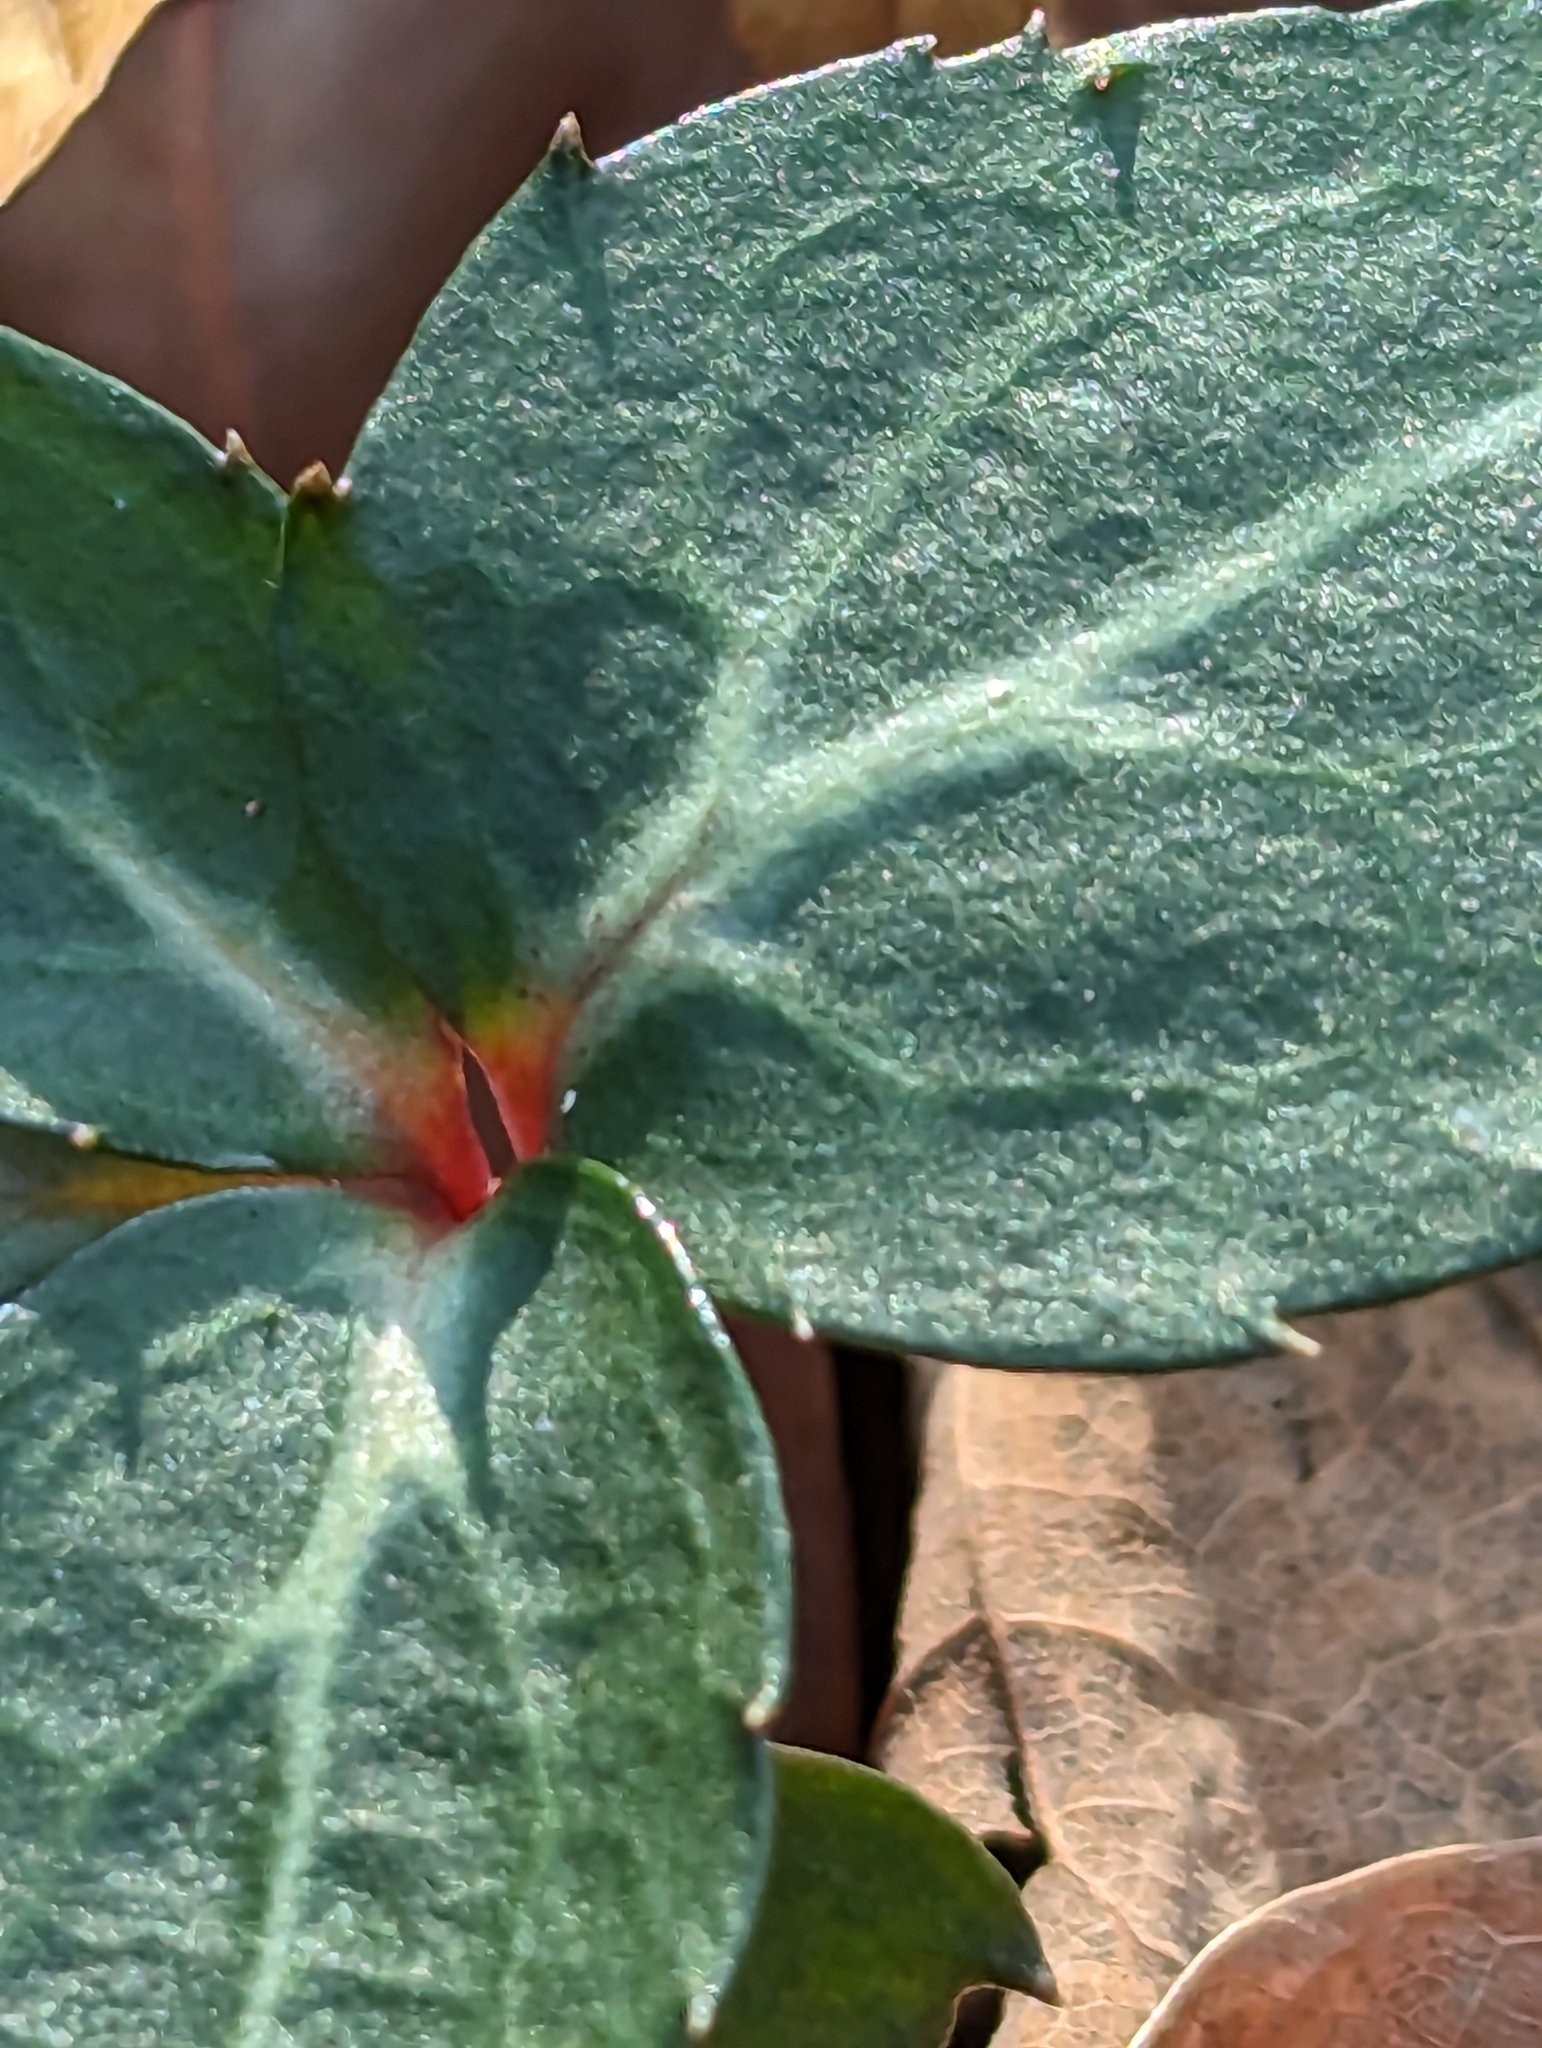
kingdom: Plantae
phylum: Tracheophyta
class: Magnoliopsida
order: Ericales
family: Ericaceae
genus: Chimaphila
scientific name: Chimaphila maculata
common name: Spotted pipsissewa
